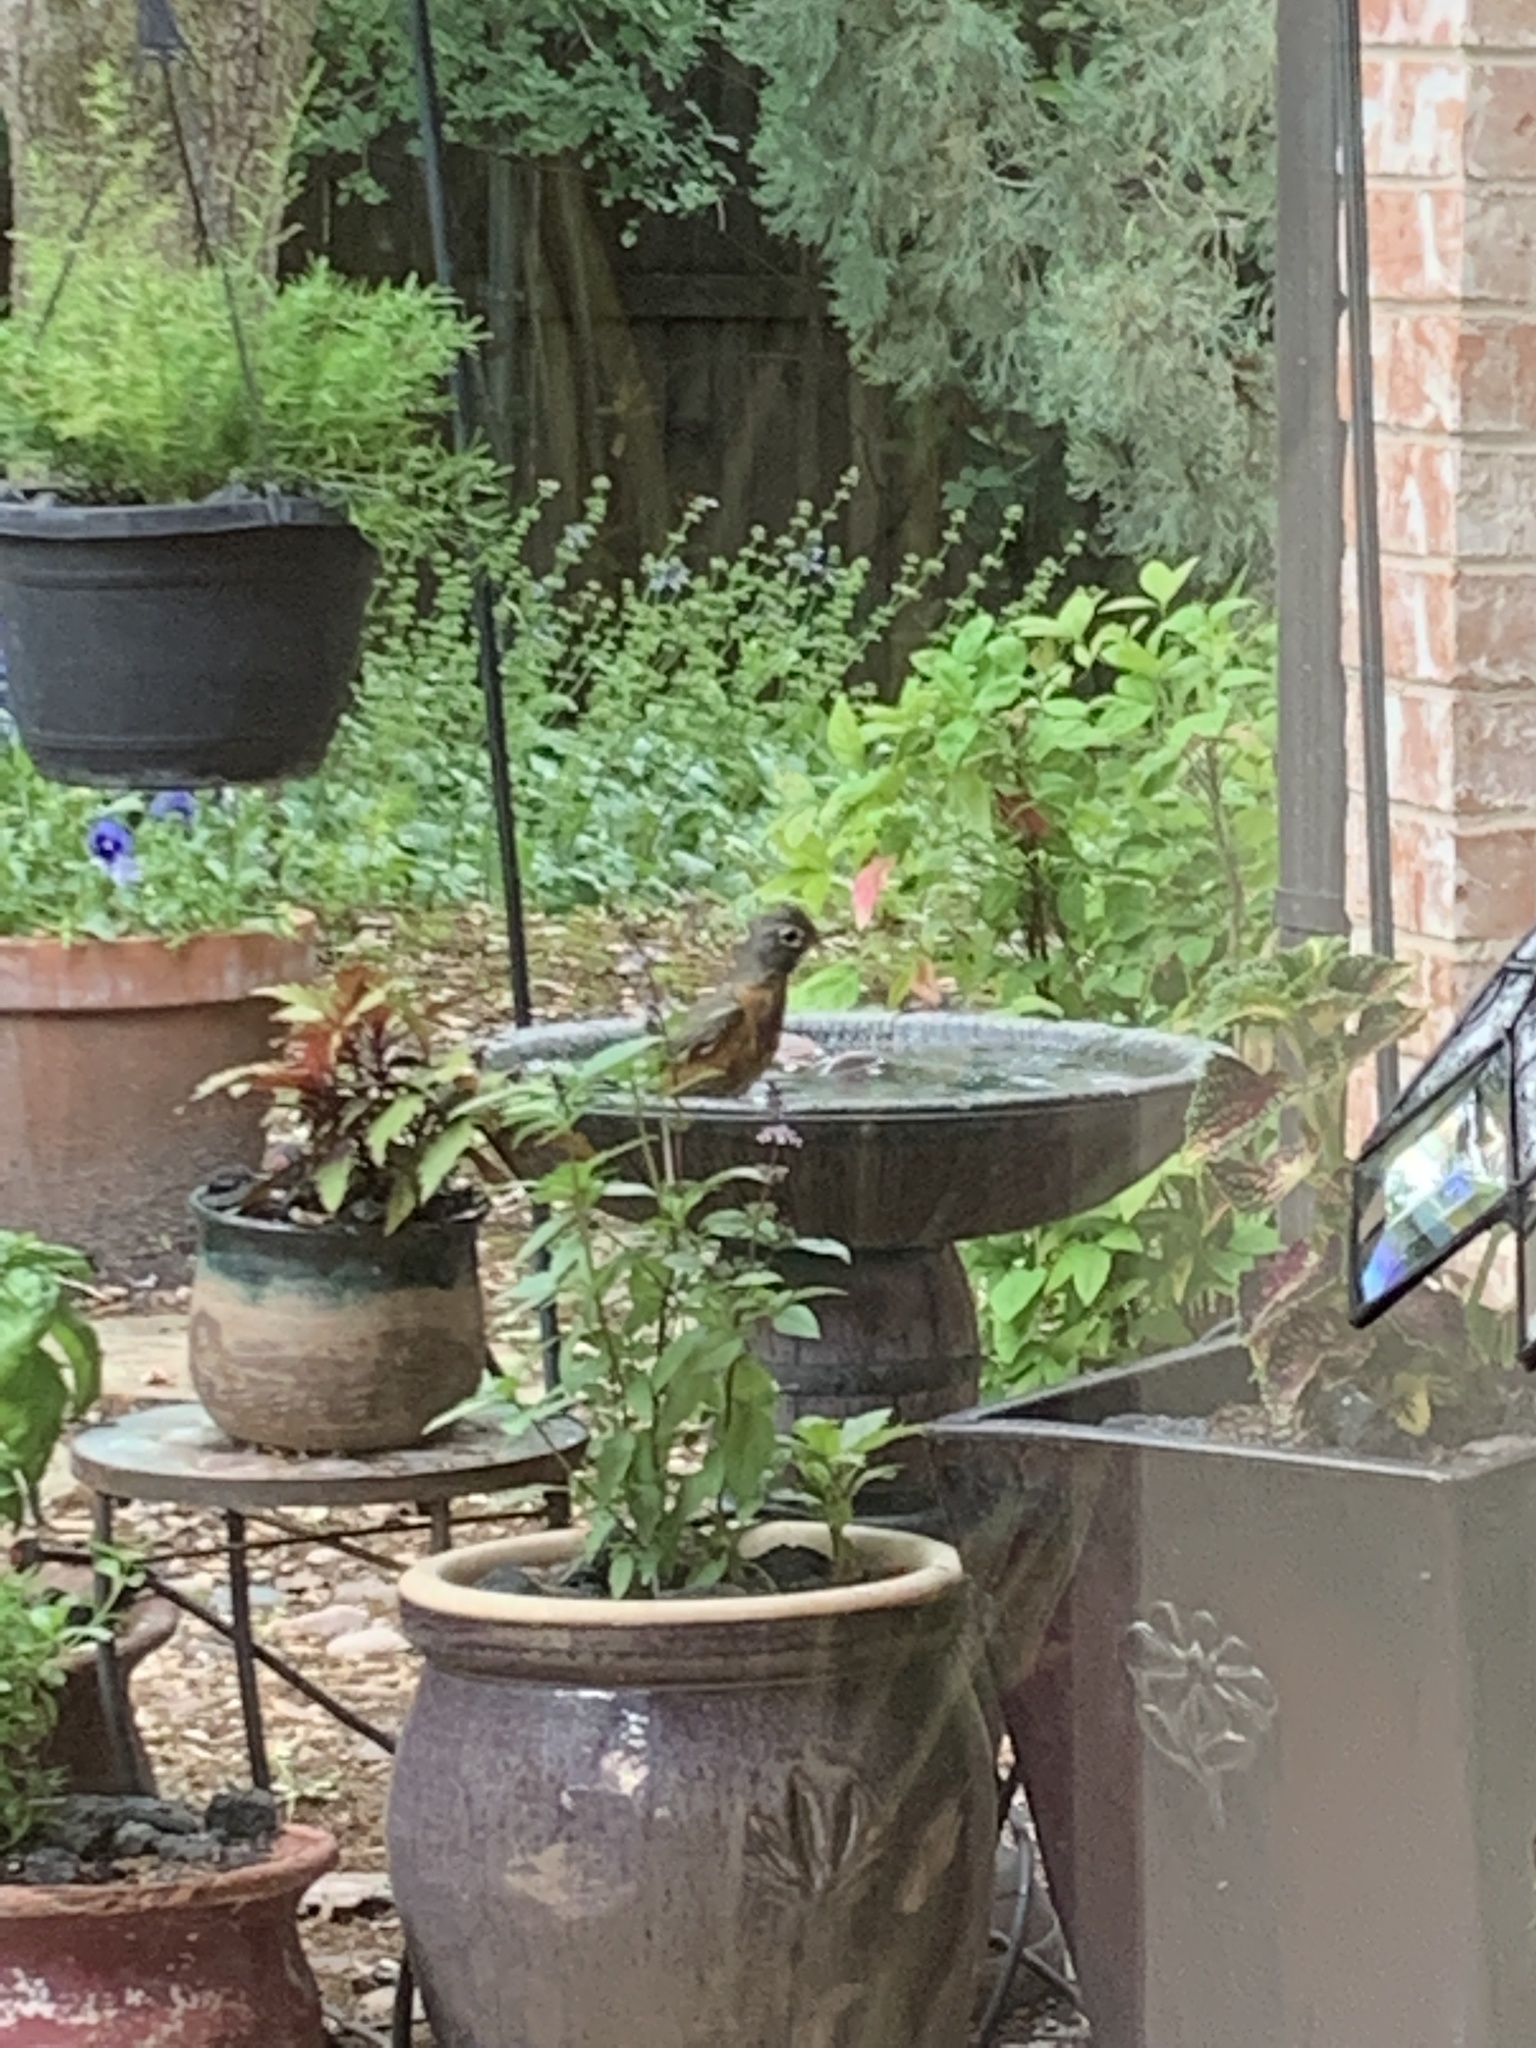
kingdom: Animalia
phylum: Chordata
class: Aves
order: Passeriformes
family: Turdidae
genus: Turdus
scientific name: Turdus migratorius
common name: American robin
